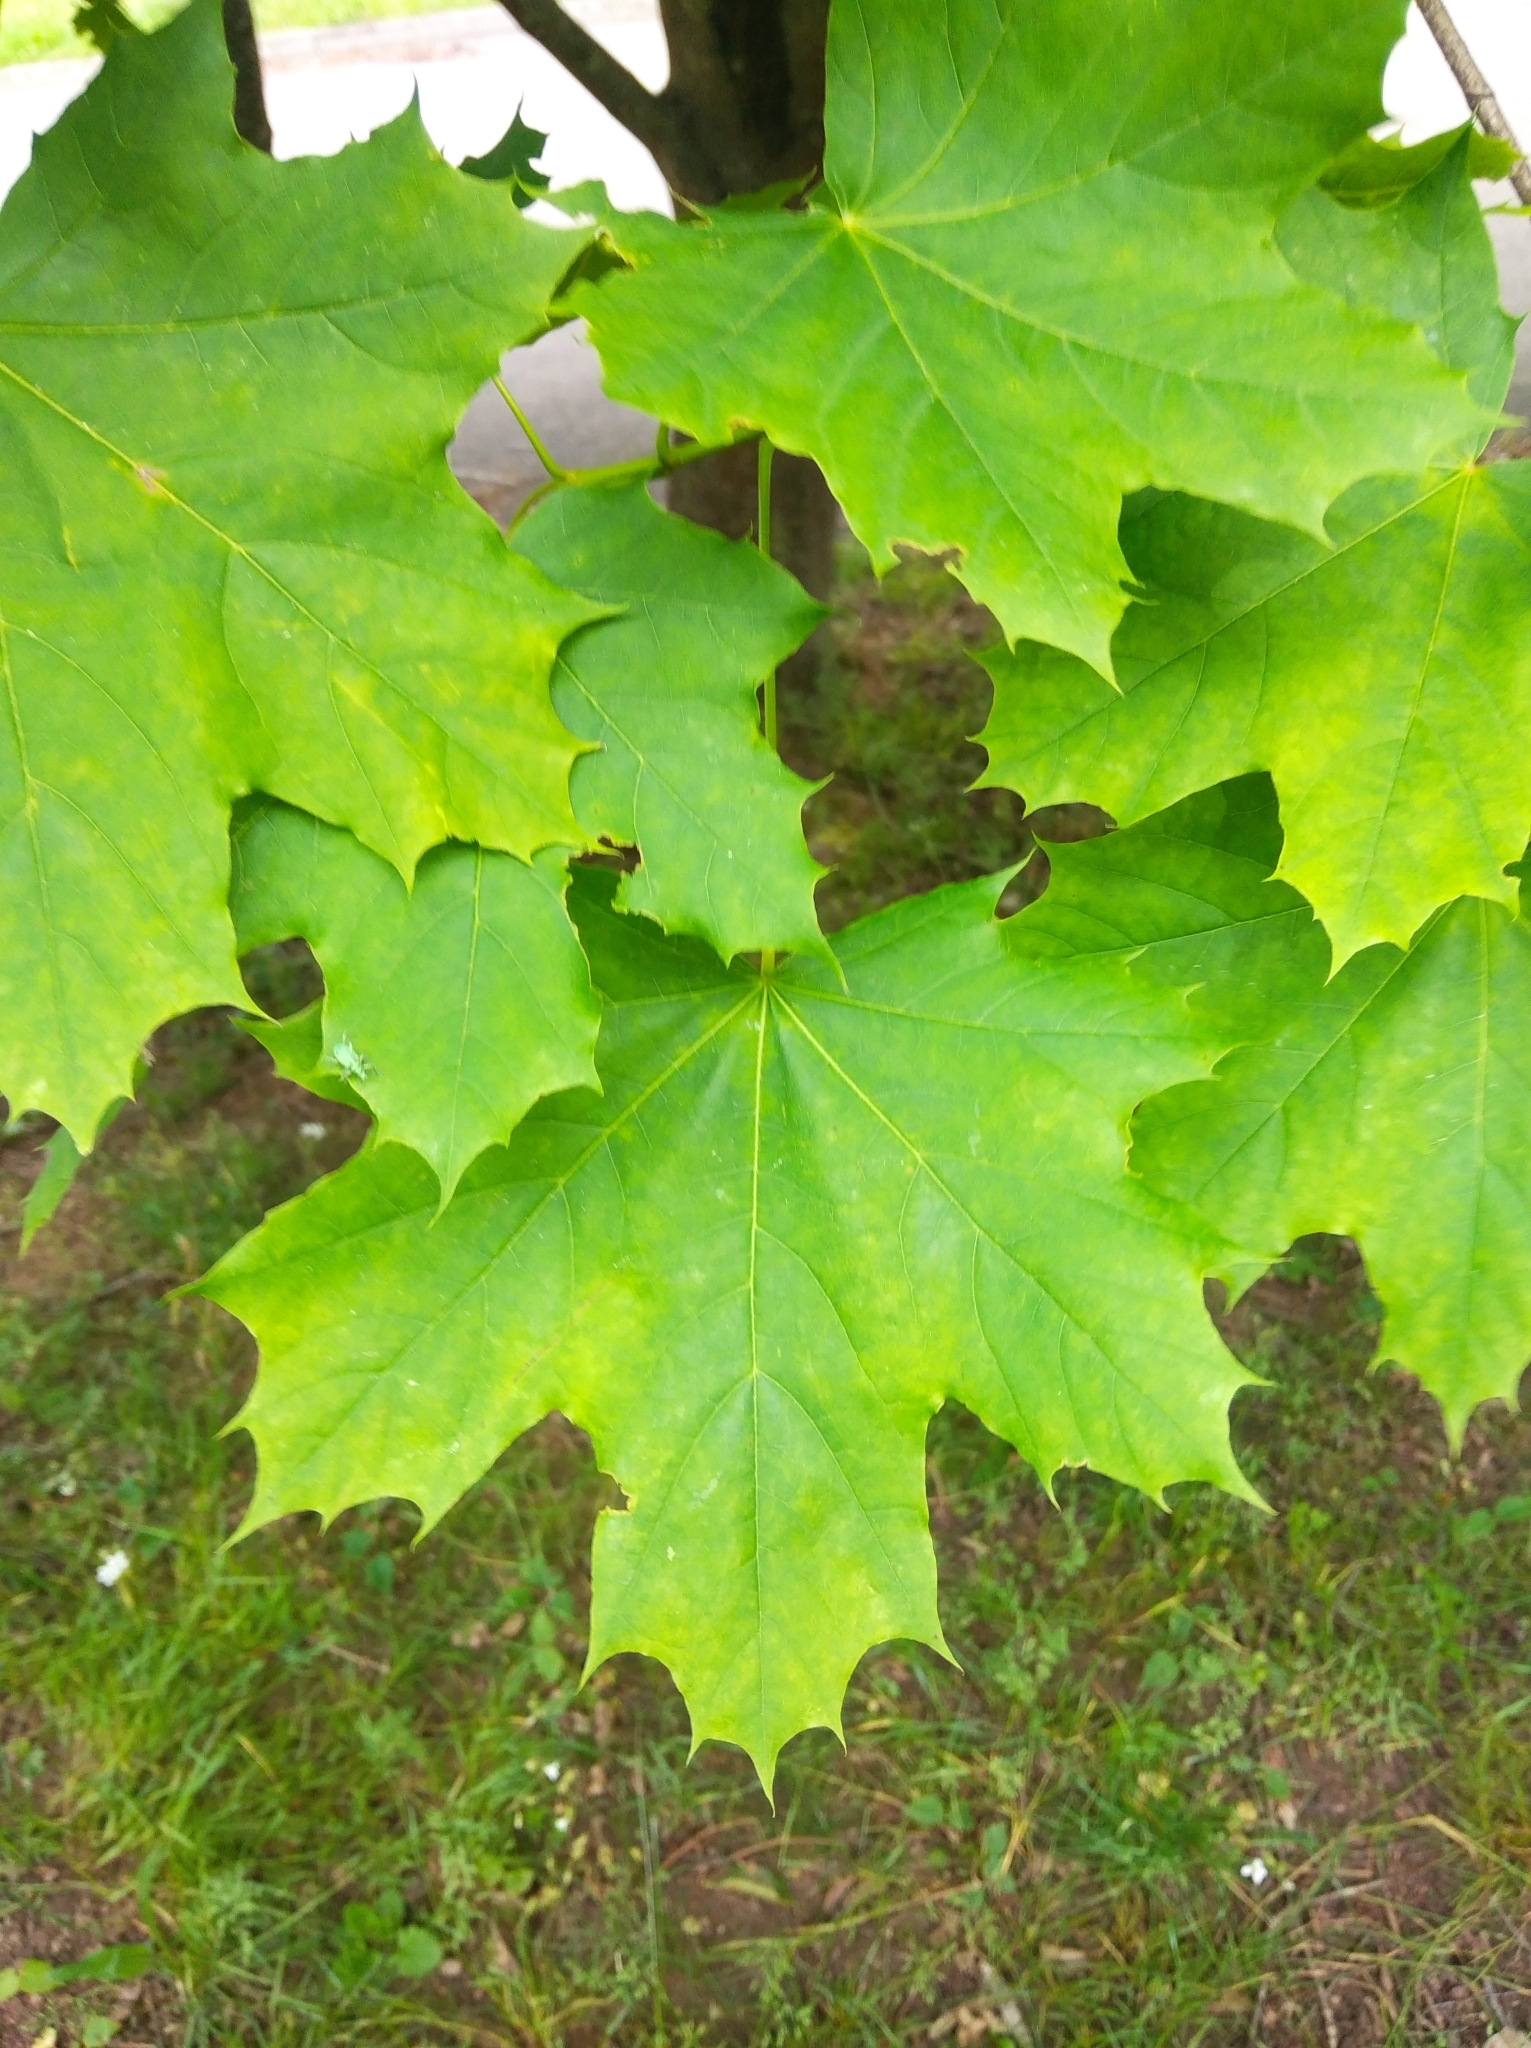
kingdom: Plantae
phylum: Tracheophyta
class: Magnoliopsida
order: Sapindales
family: Sapindaceae
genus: Acer
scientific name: Acer platanoides
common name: Norway maple
